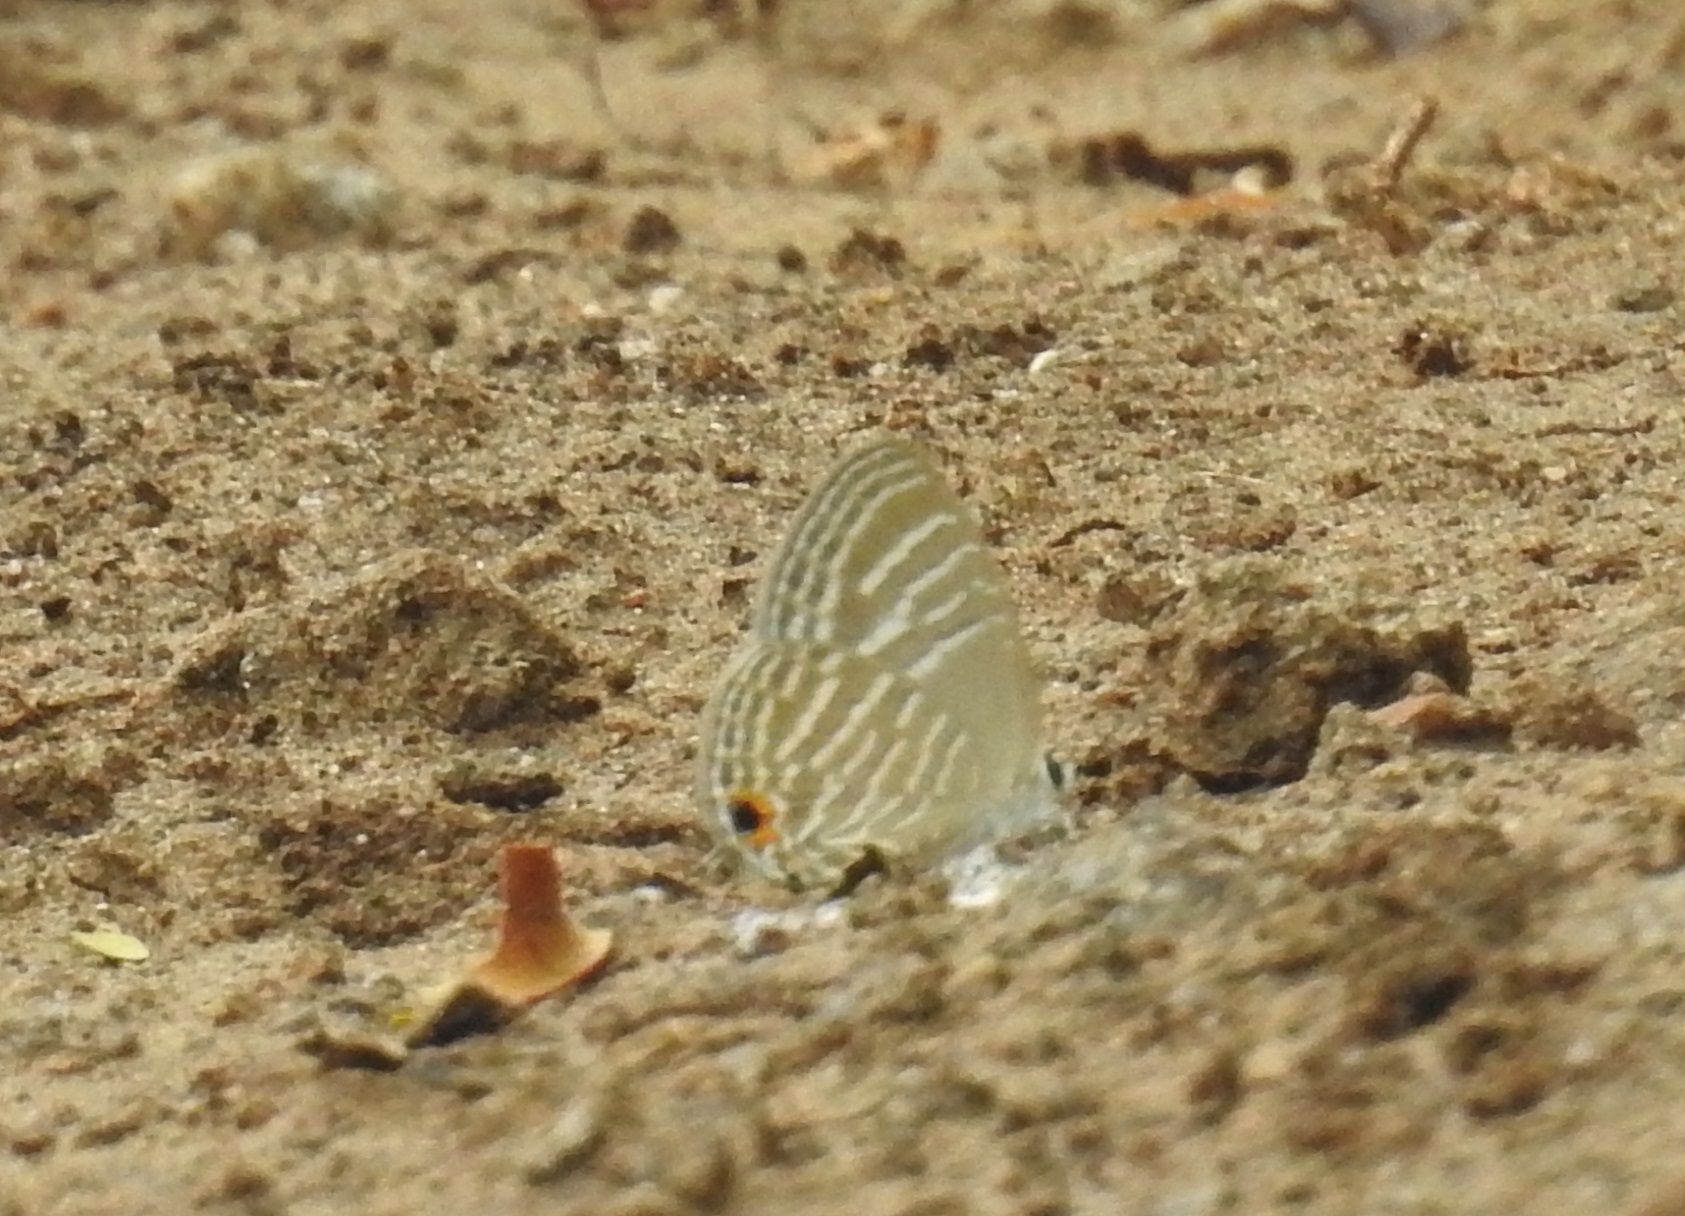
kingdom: Animalia
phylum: Arthropoda
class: Insecta
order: Lepidoptera
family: Lycaenidae
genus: Jamides
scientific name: Jamides celeno
